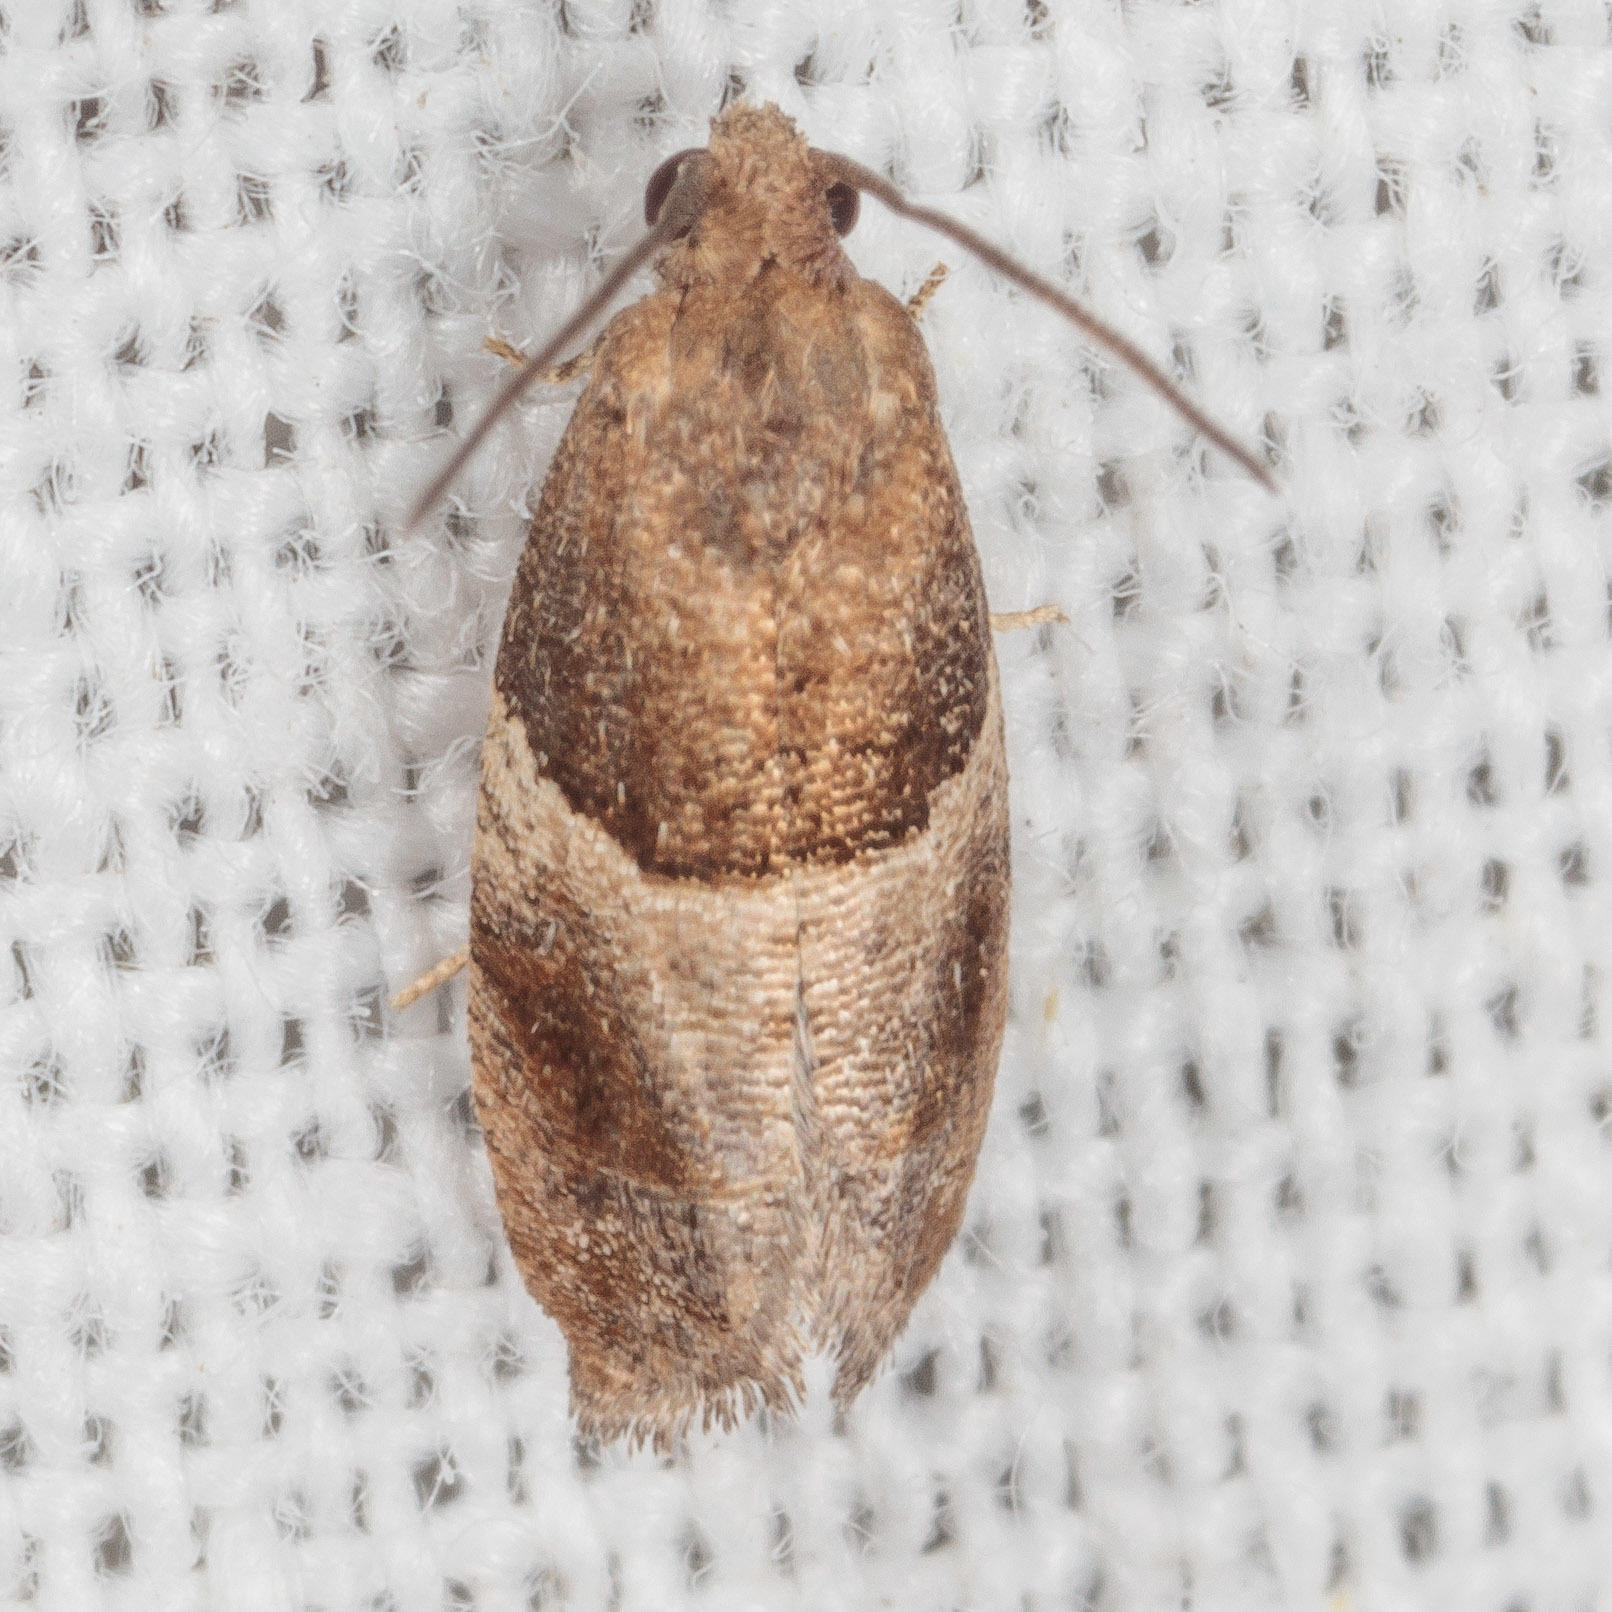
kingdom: Animalia
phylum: Arthropoda
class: Insecta
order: Lepidoptera
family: Tortricidae
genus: Larisa
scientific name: Larisa subsolana
